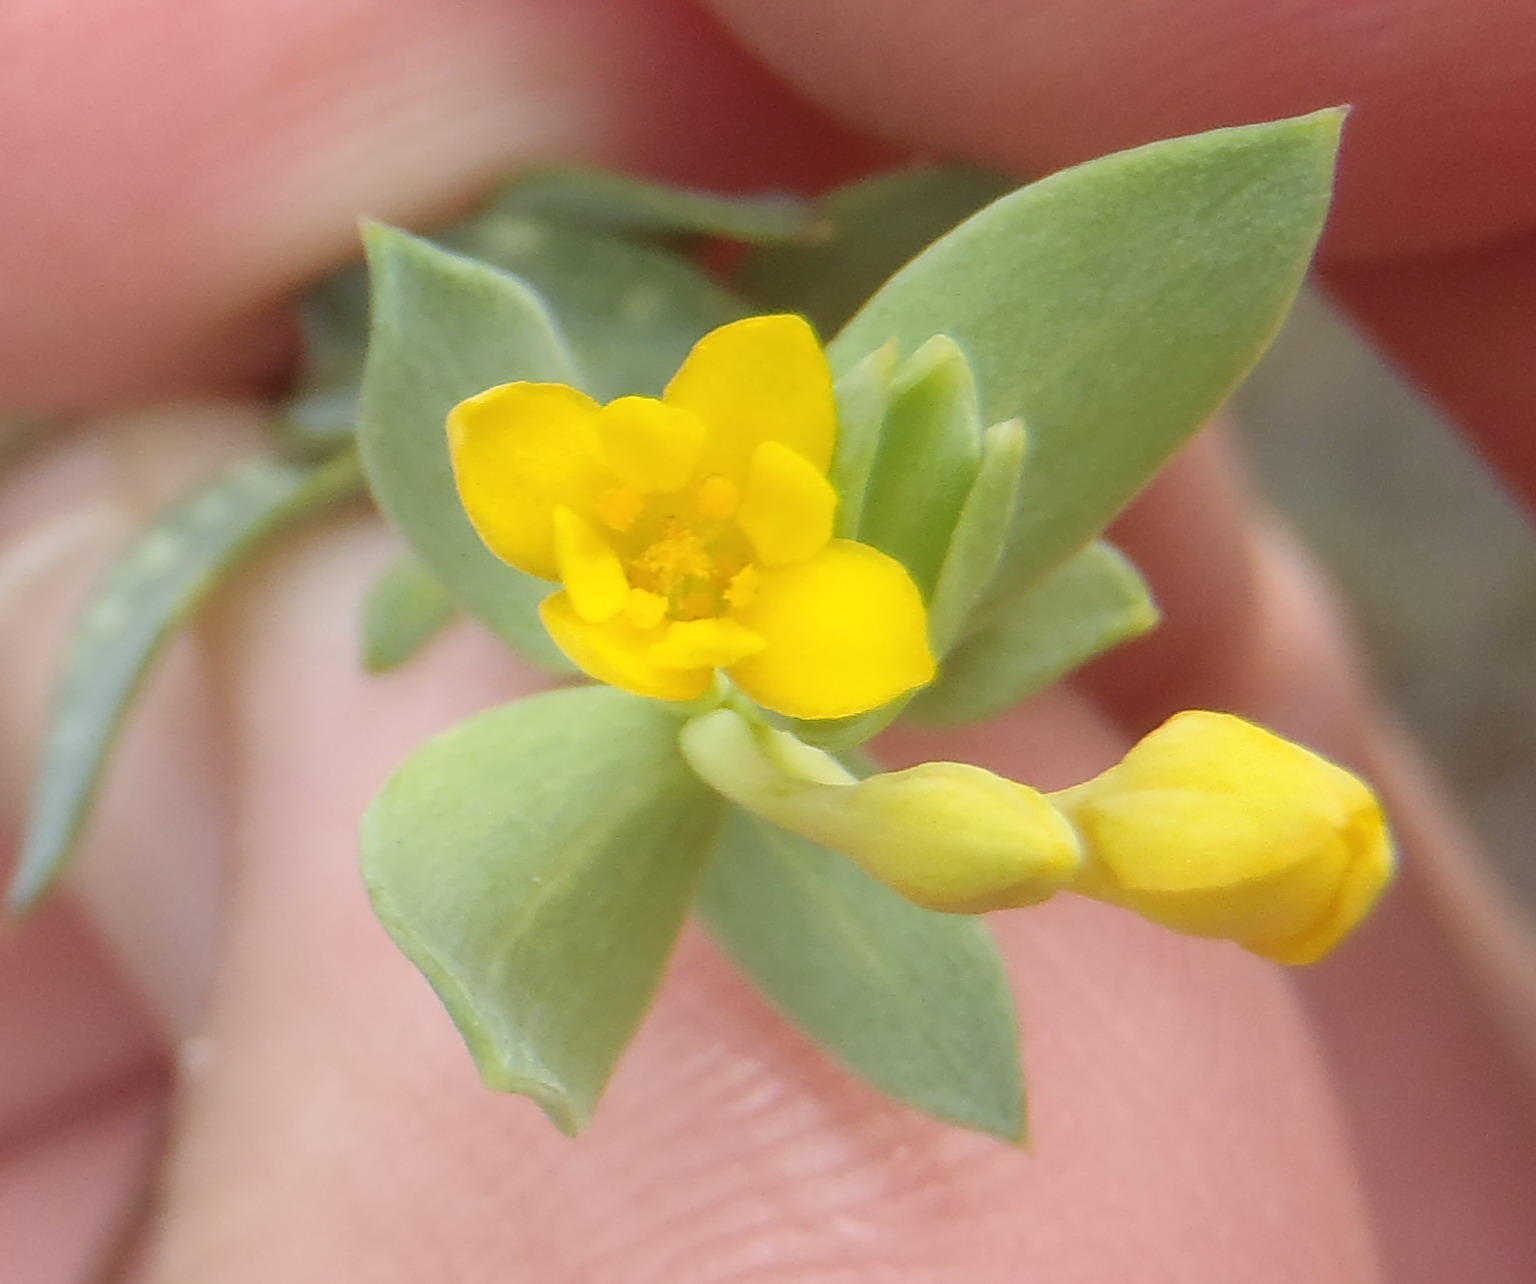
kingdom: Plantae
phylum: Tracheophyta
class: Magnoliopsida
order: Malvales
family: Thymelaeaceae
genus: Gnidia
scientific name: Gnidia coriacea
